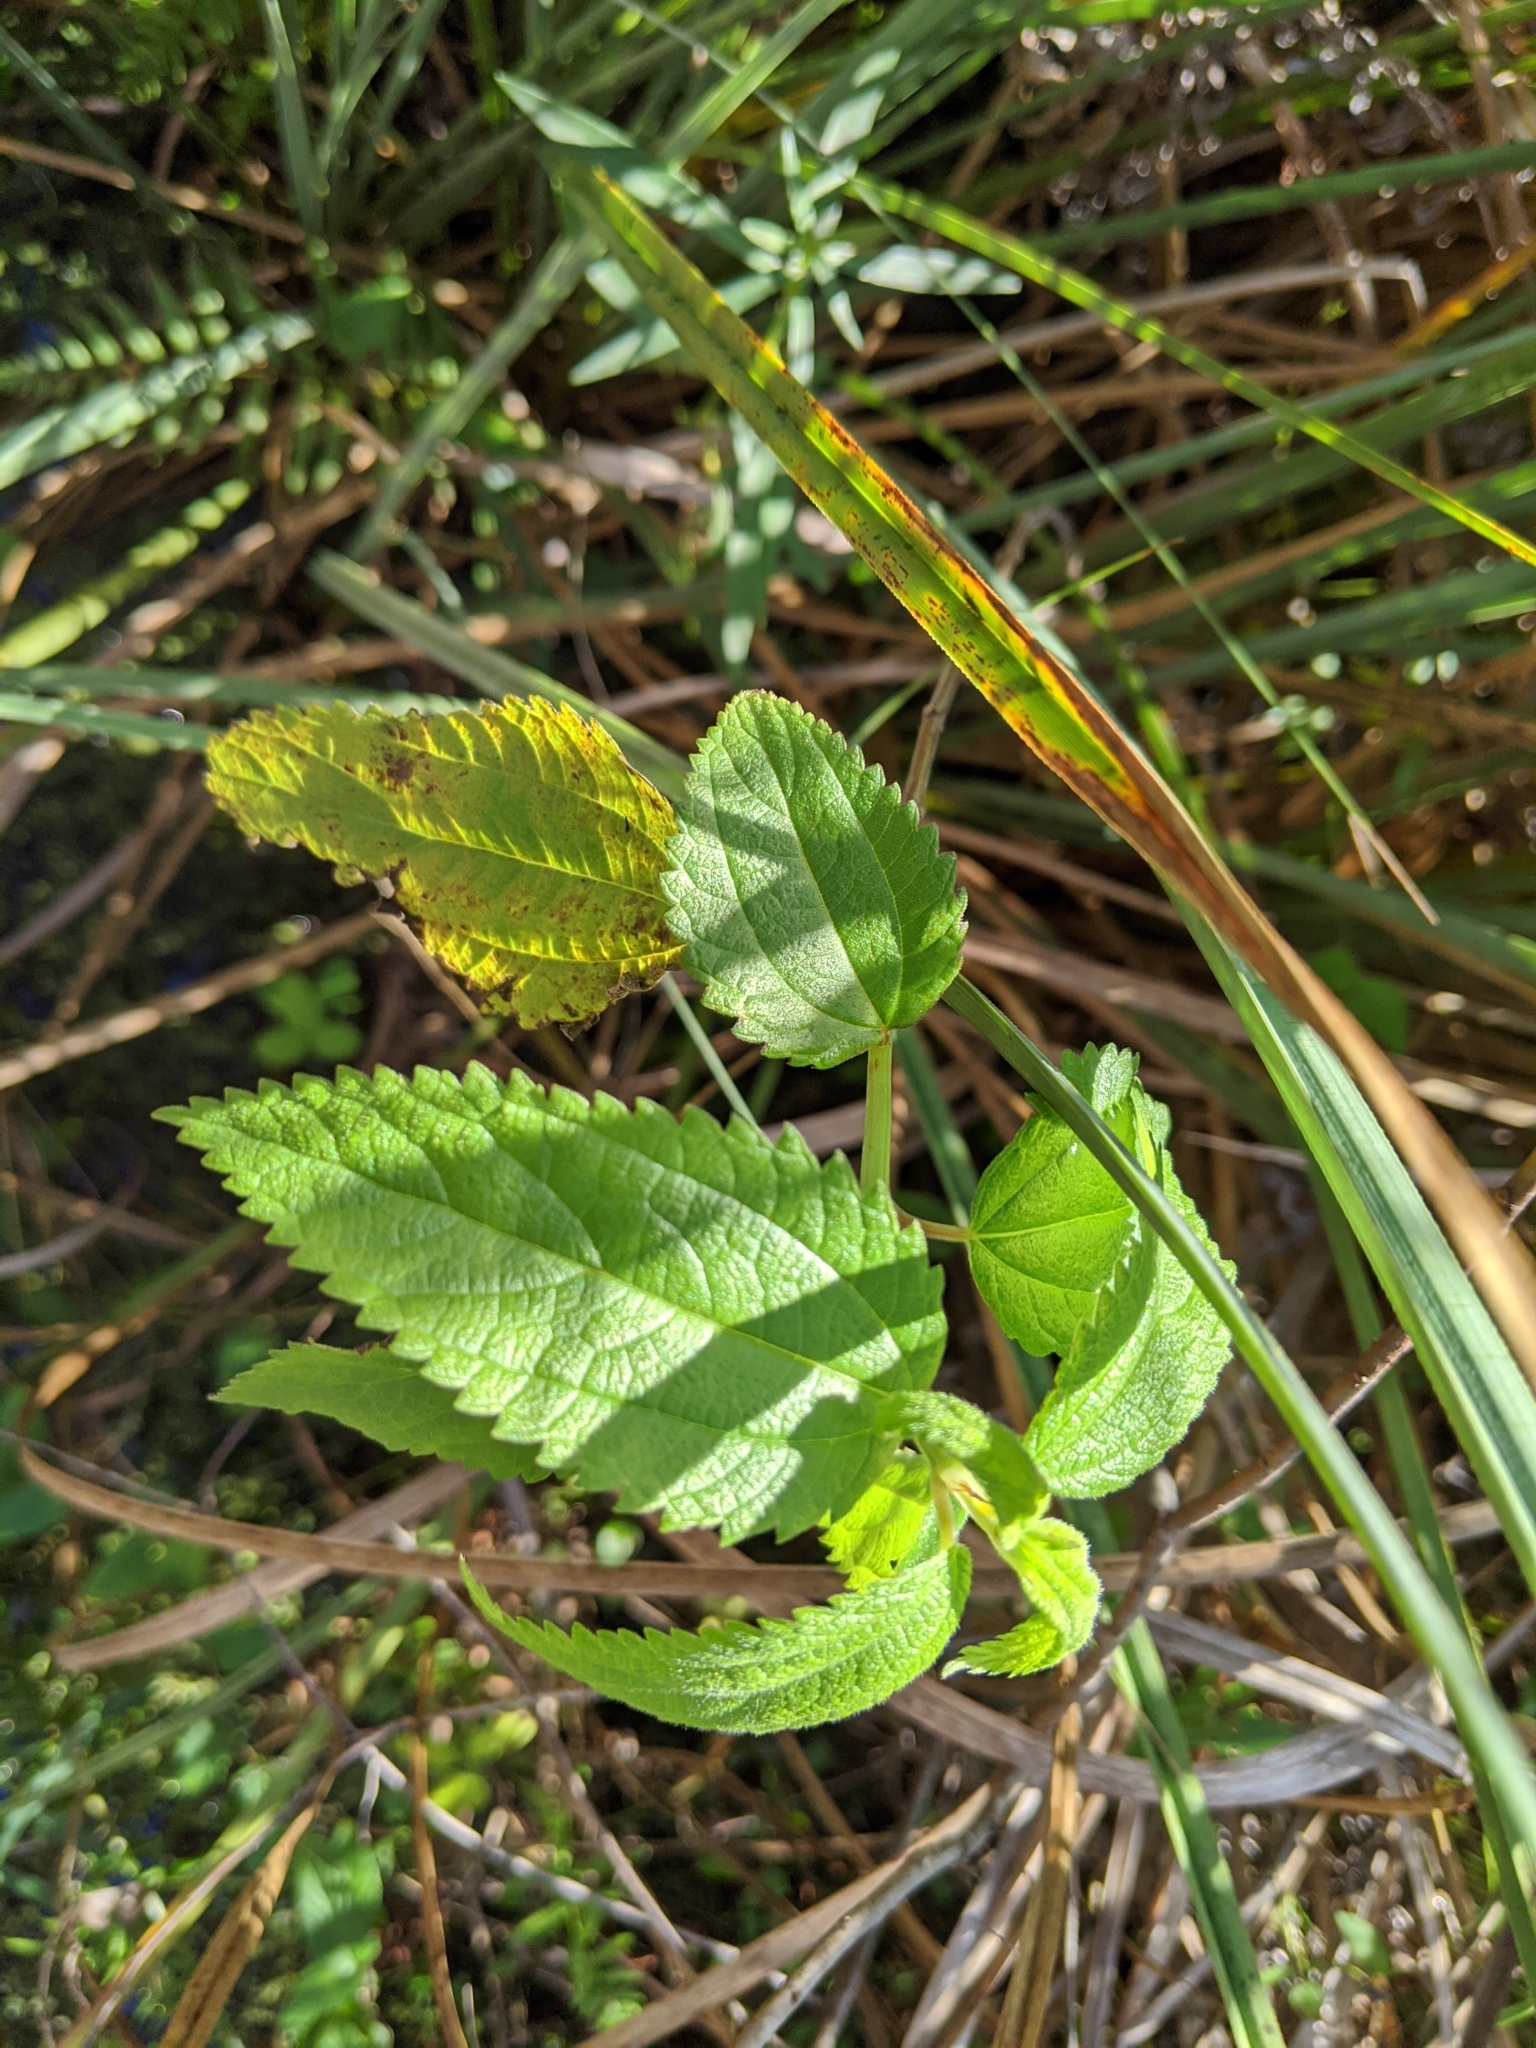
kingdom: Plantae
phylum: Tracheophyta
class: Magnoliopsida
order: Rosales
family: Urticaceae
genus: Boehmeria
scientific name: Boehmeria cylindrica
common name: Bog-hemp
